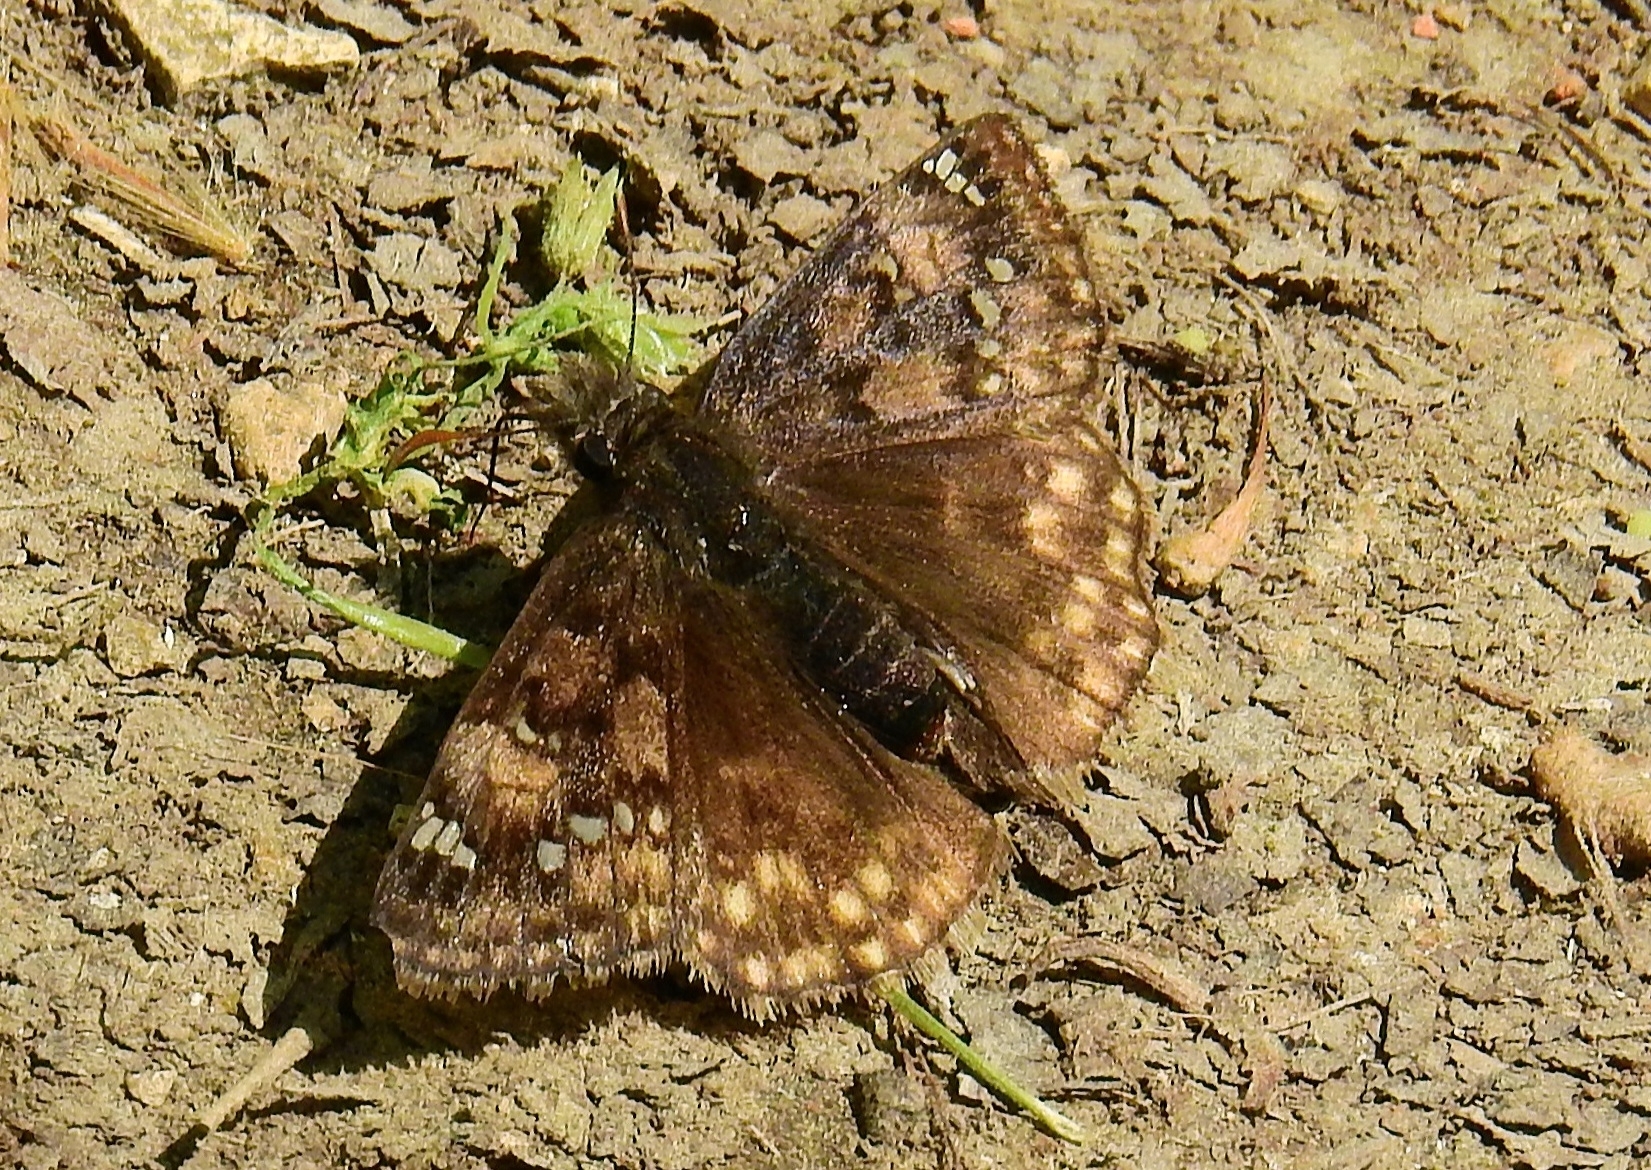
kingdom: Animalia
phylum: Arthropoda
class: Insecta
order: Lepidoptera
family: Hesperiidae
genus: Erynnis
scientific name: Erynnis juvenalis
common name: Juvenal's duskywing
